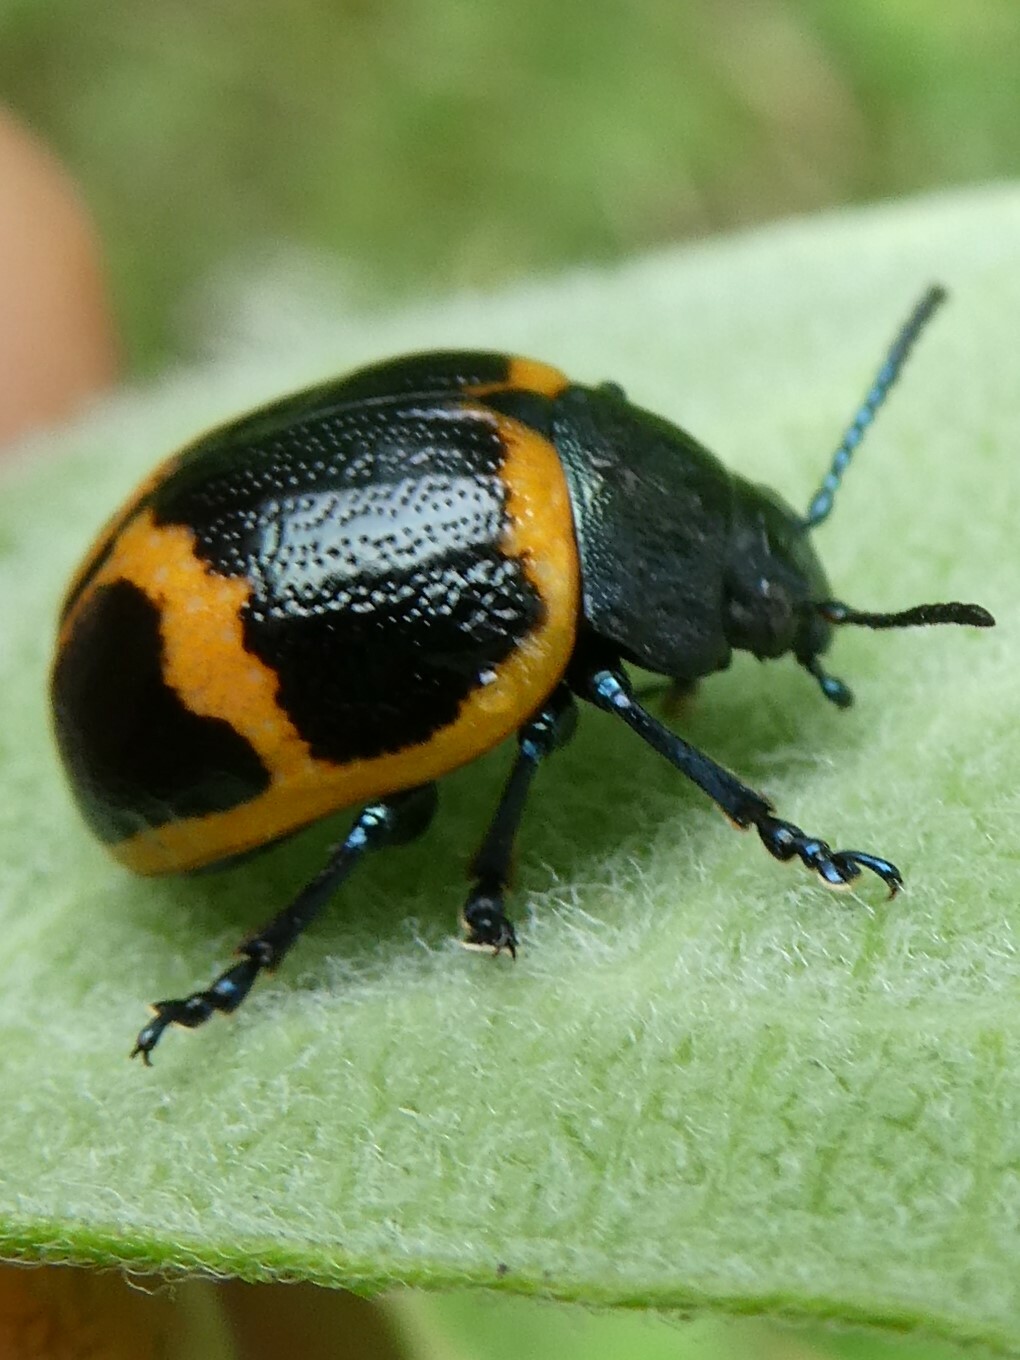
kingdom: Animalia
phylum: Arthropoda
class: Insecta
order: Coleoptera
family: Chrysomelidae
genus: Labidomera
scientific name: Labidomera clivicollis
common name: Swamp milkweed leaf beetle
